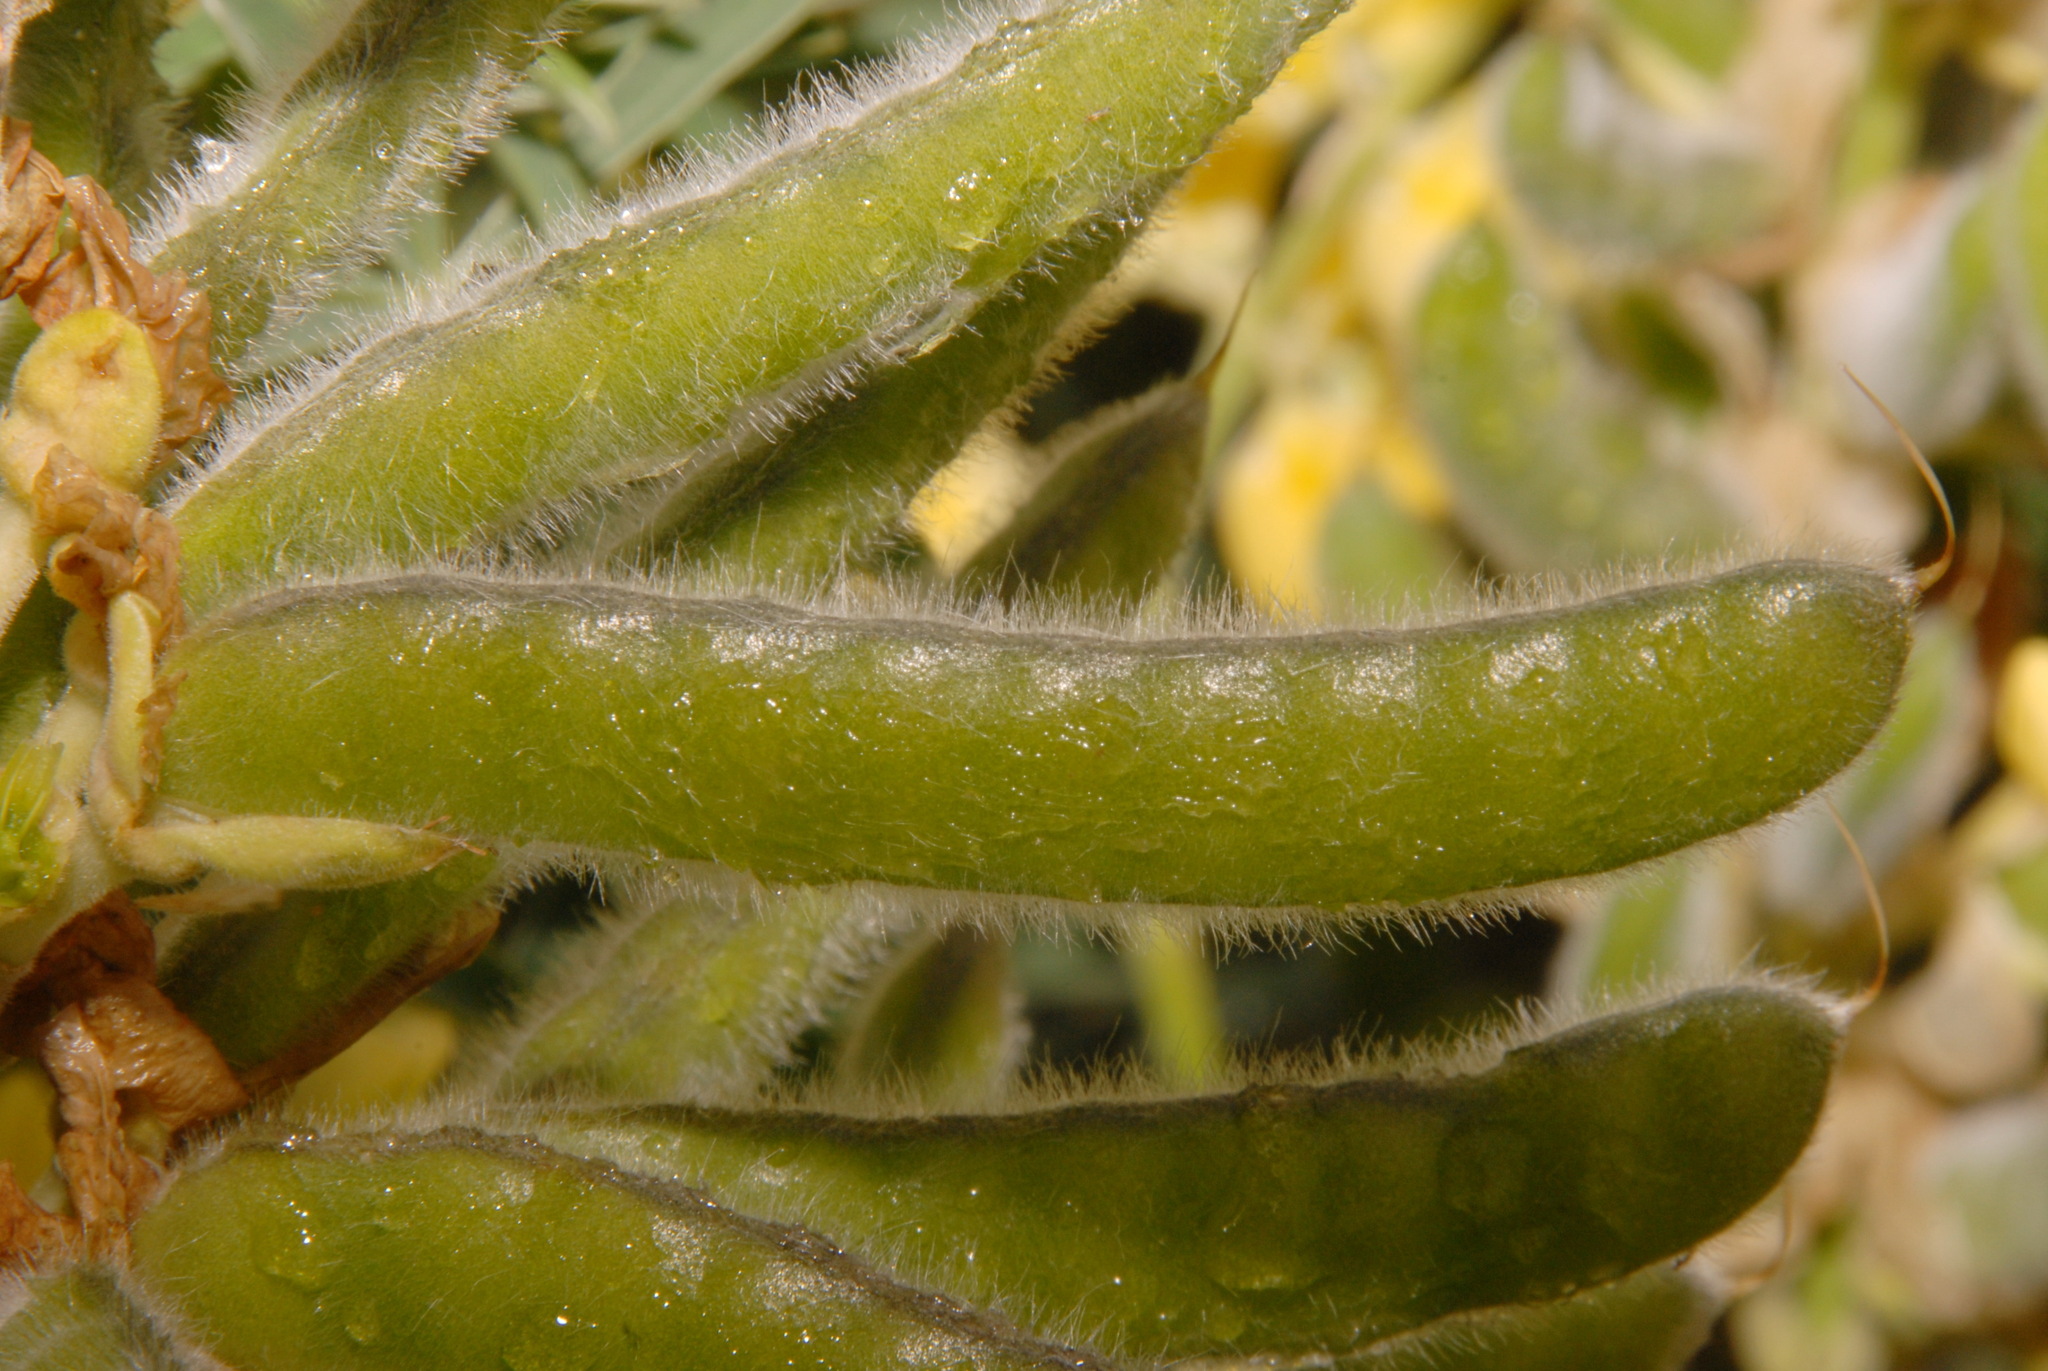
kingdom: Plantae
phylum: Tracheophyta
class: Magnoliopsida
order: Fabales
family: Fabaceae
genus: Lupinus
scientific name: Lupinus arboreus
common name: Yellow bush lupine
